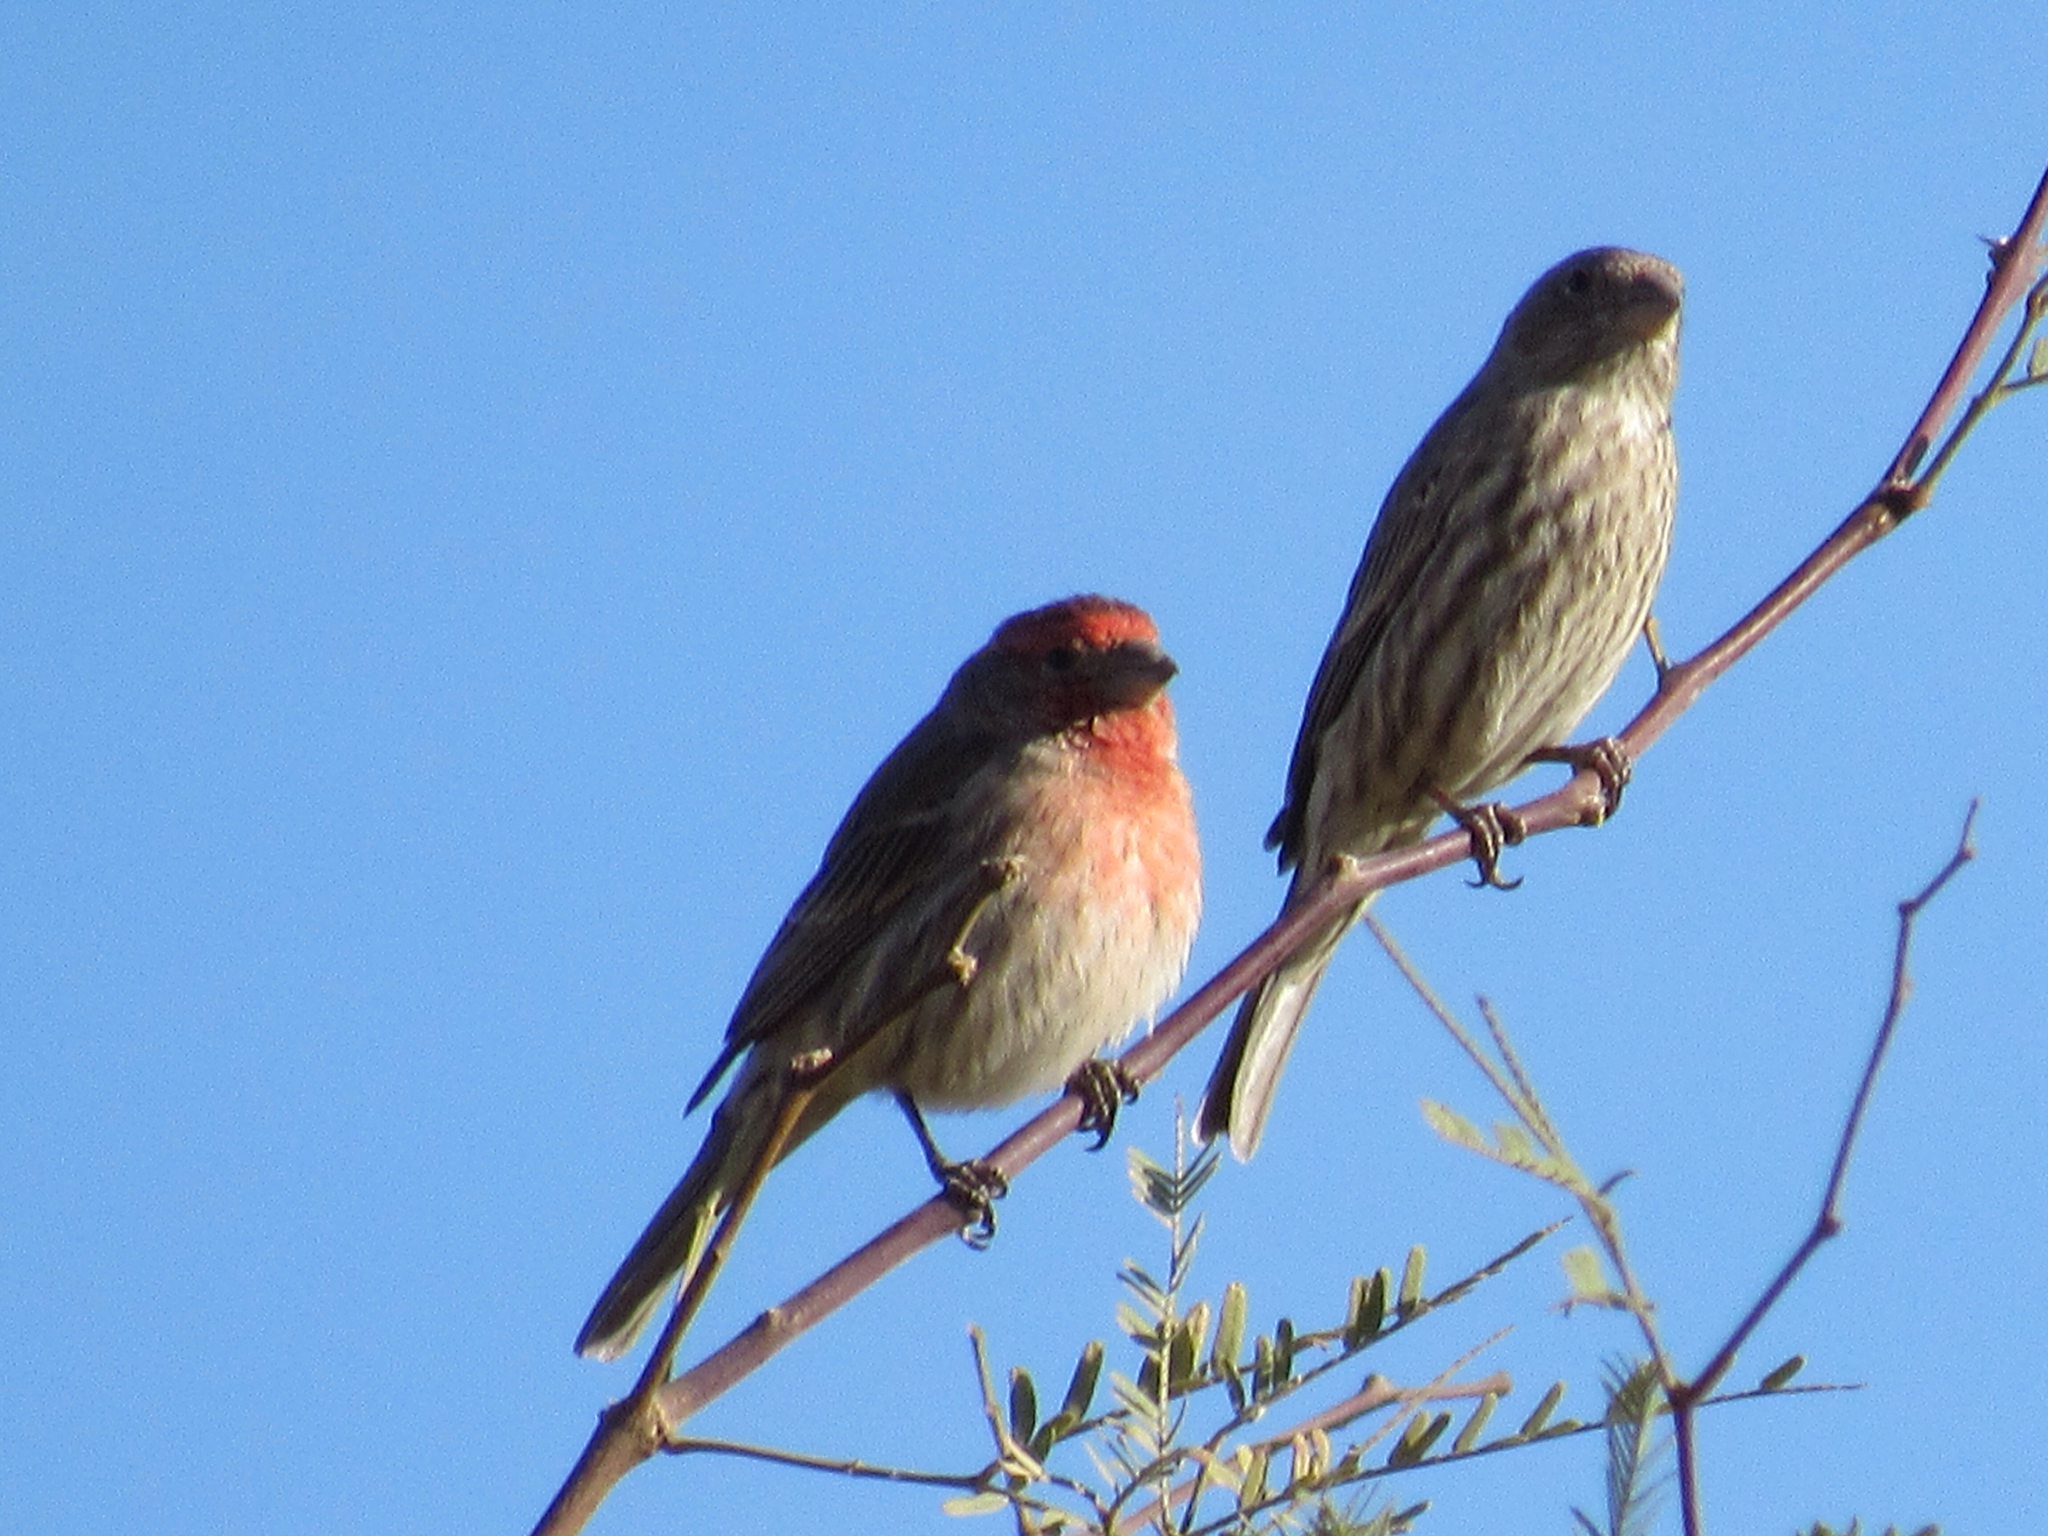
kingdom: Animalia
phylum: Chordata
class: Aves
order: Passeriformes
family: Fringillidae
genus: Haemorhous
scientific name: Haemorhous mexicanus
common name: House finch
